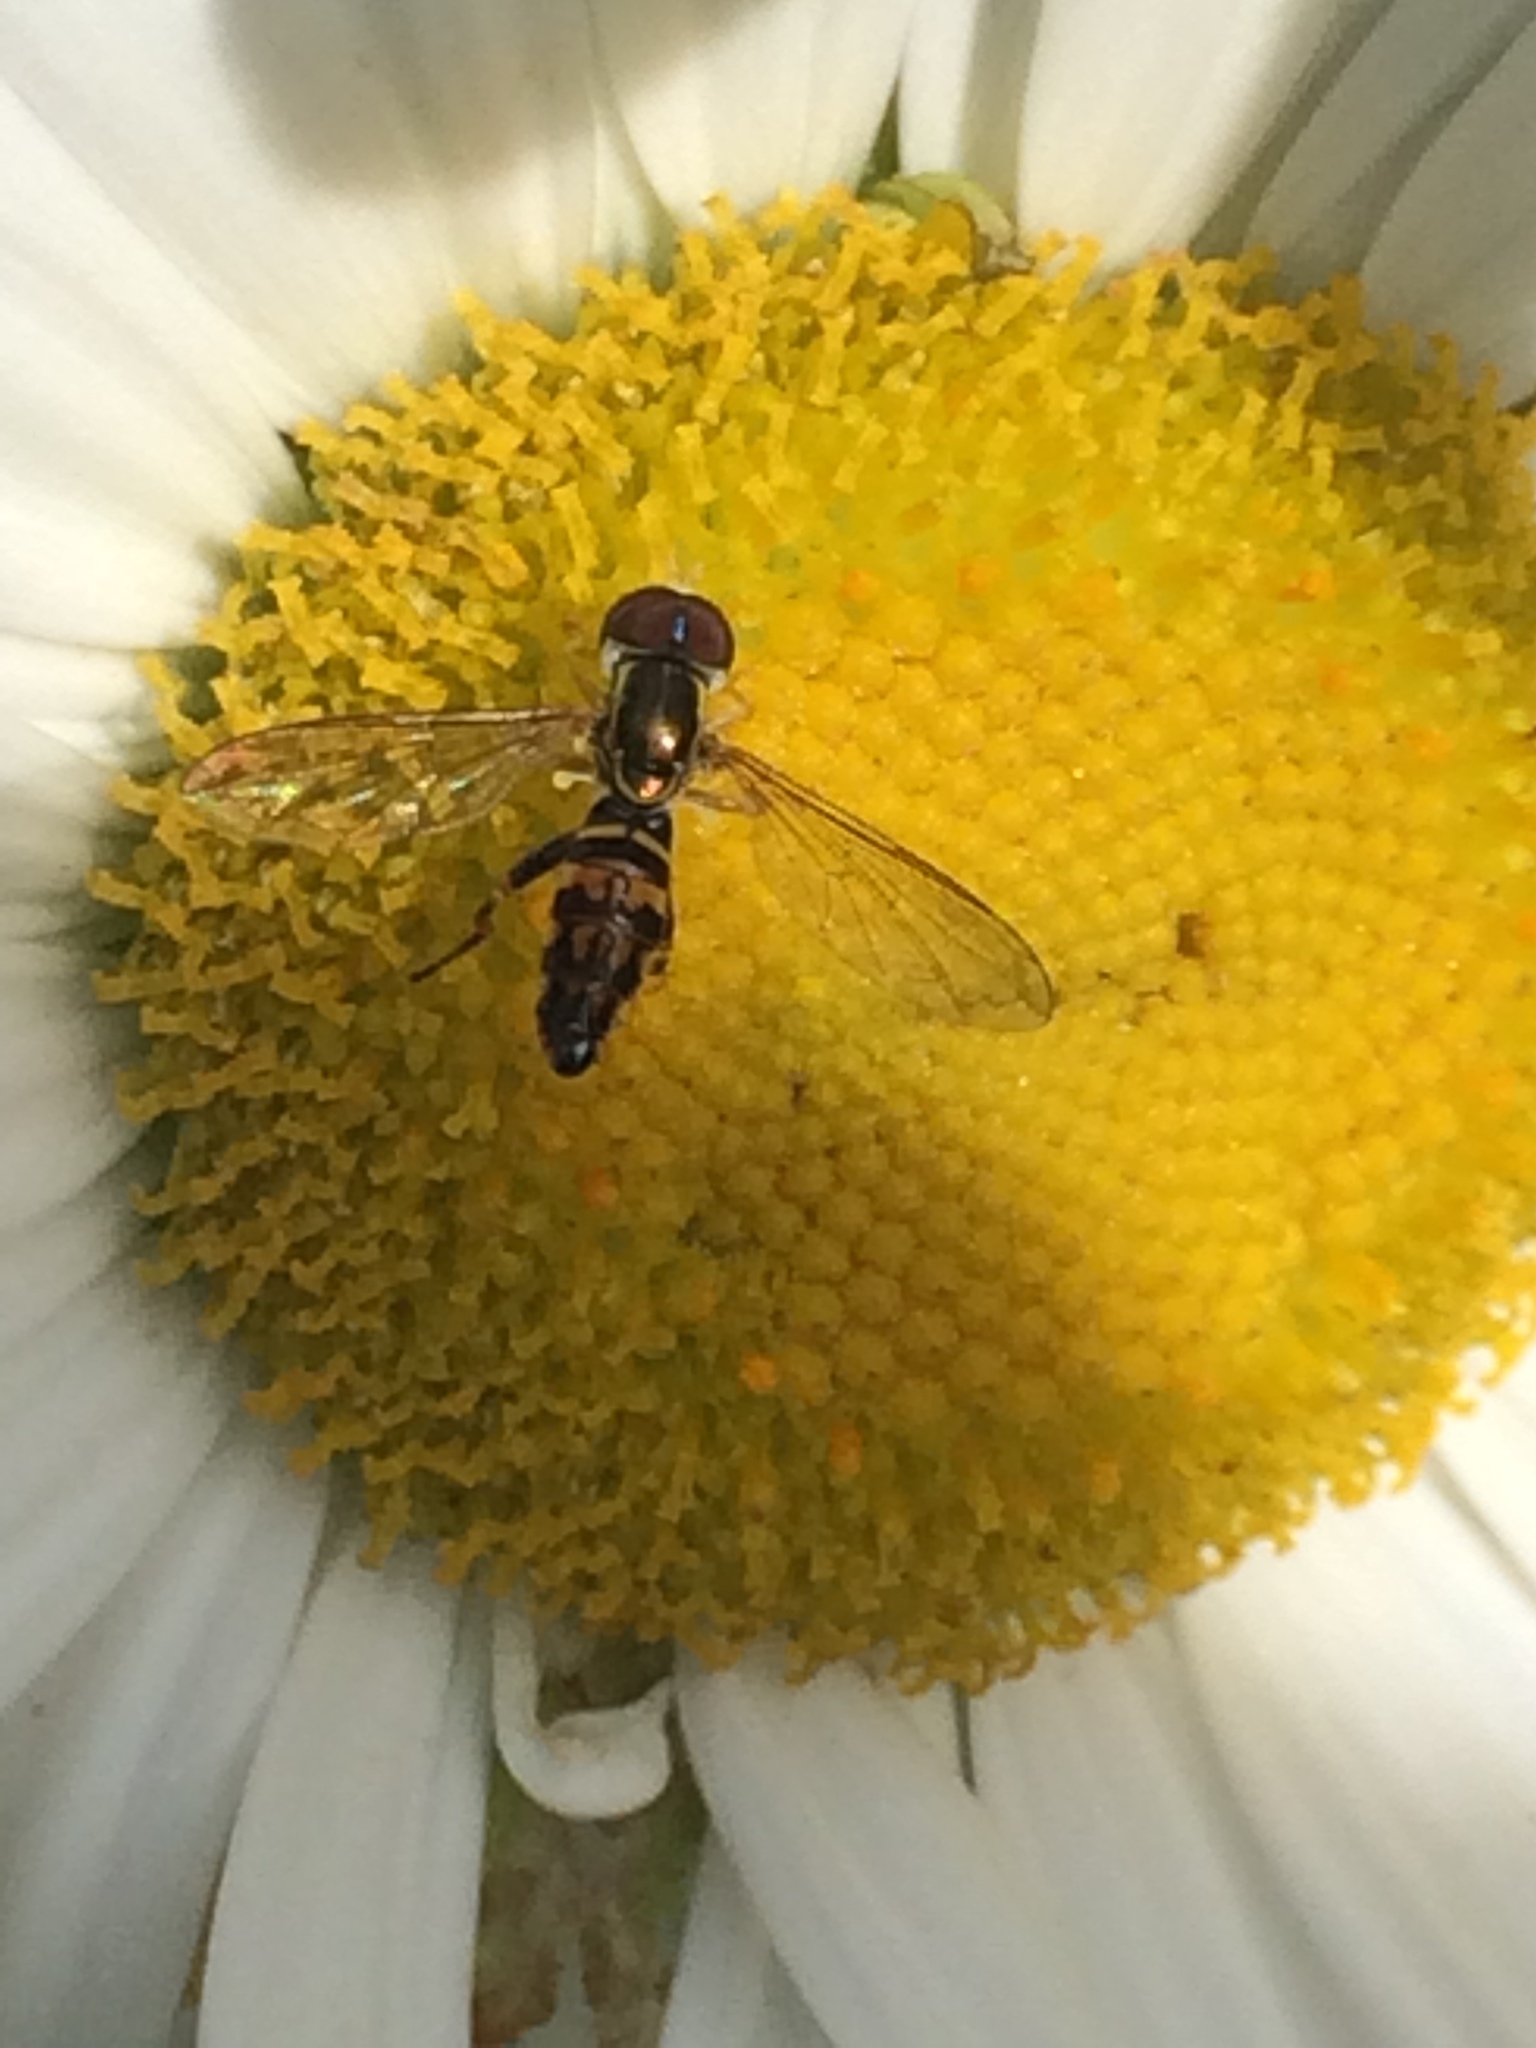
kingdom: Animalia
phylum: Arthropoda
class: Insecta
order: Diptera
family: Syrphidae
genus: Toxomerus
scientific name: Toxomerus geminatus
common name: Eastern calligrapher
